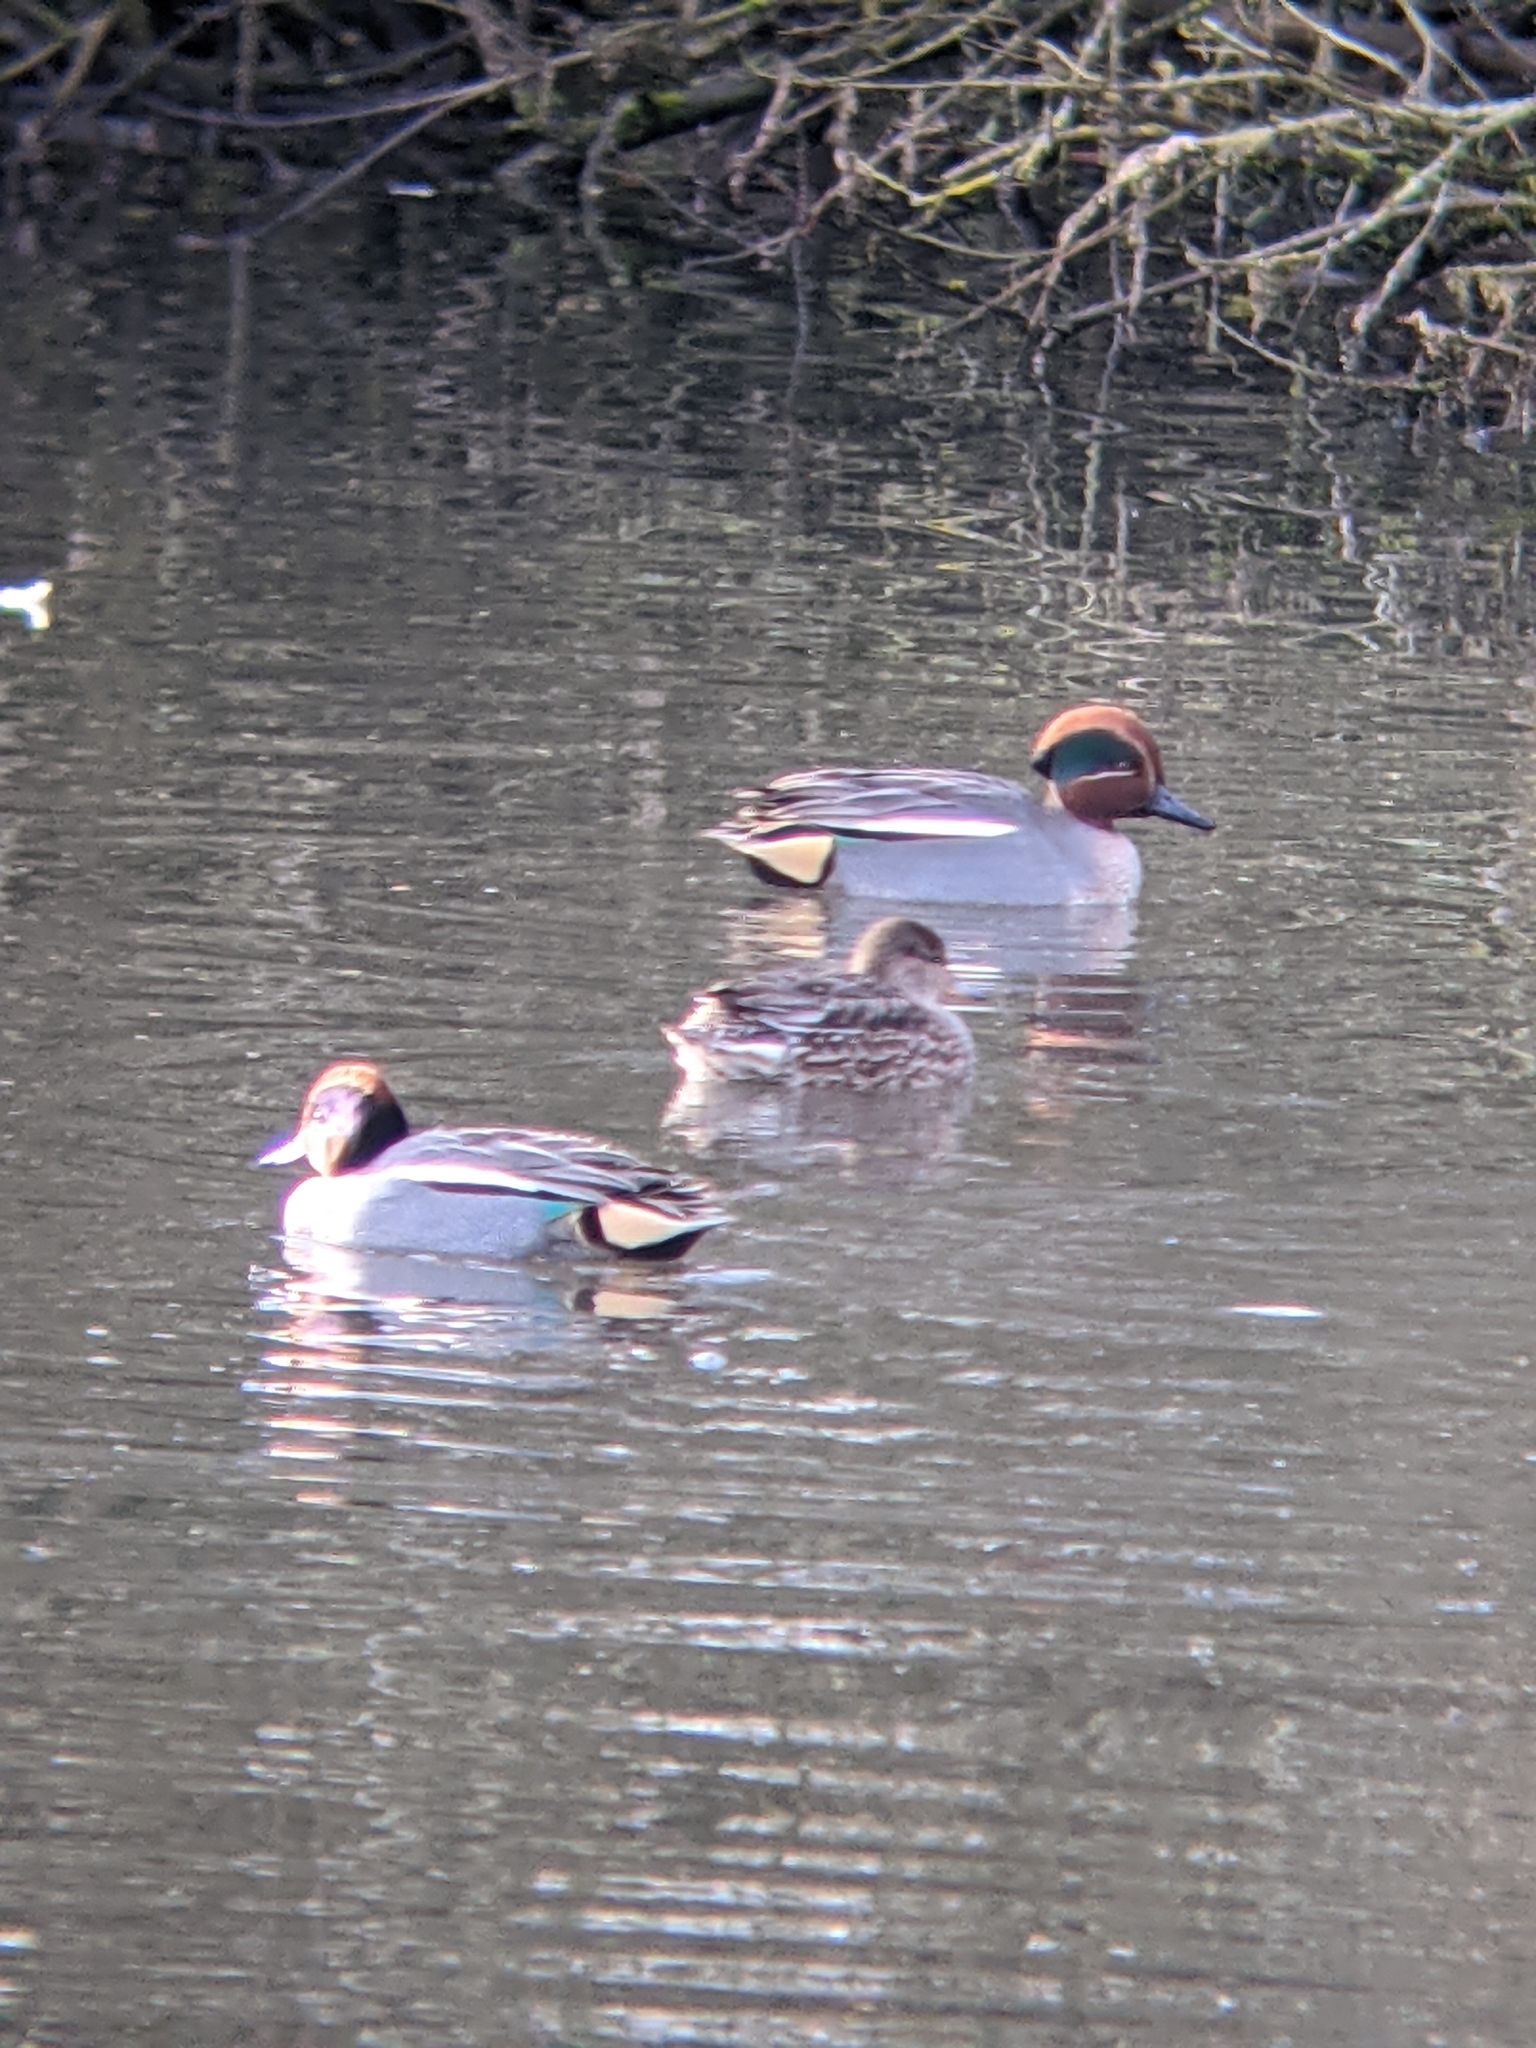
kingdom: Animalia
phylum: Chordata
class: Aves
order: Anseriformes
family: Anatidae
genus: Anas
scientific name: Anas crecca
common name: Eurasian teal
